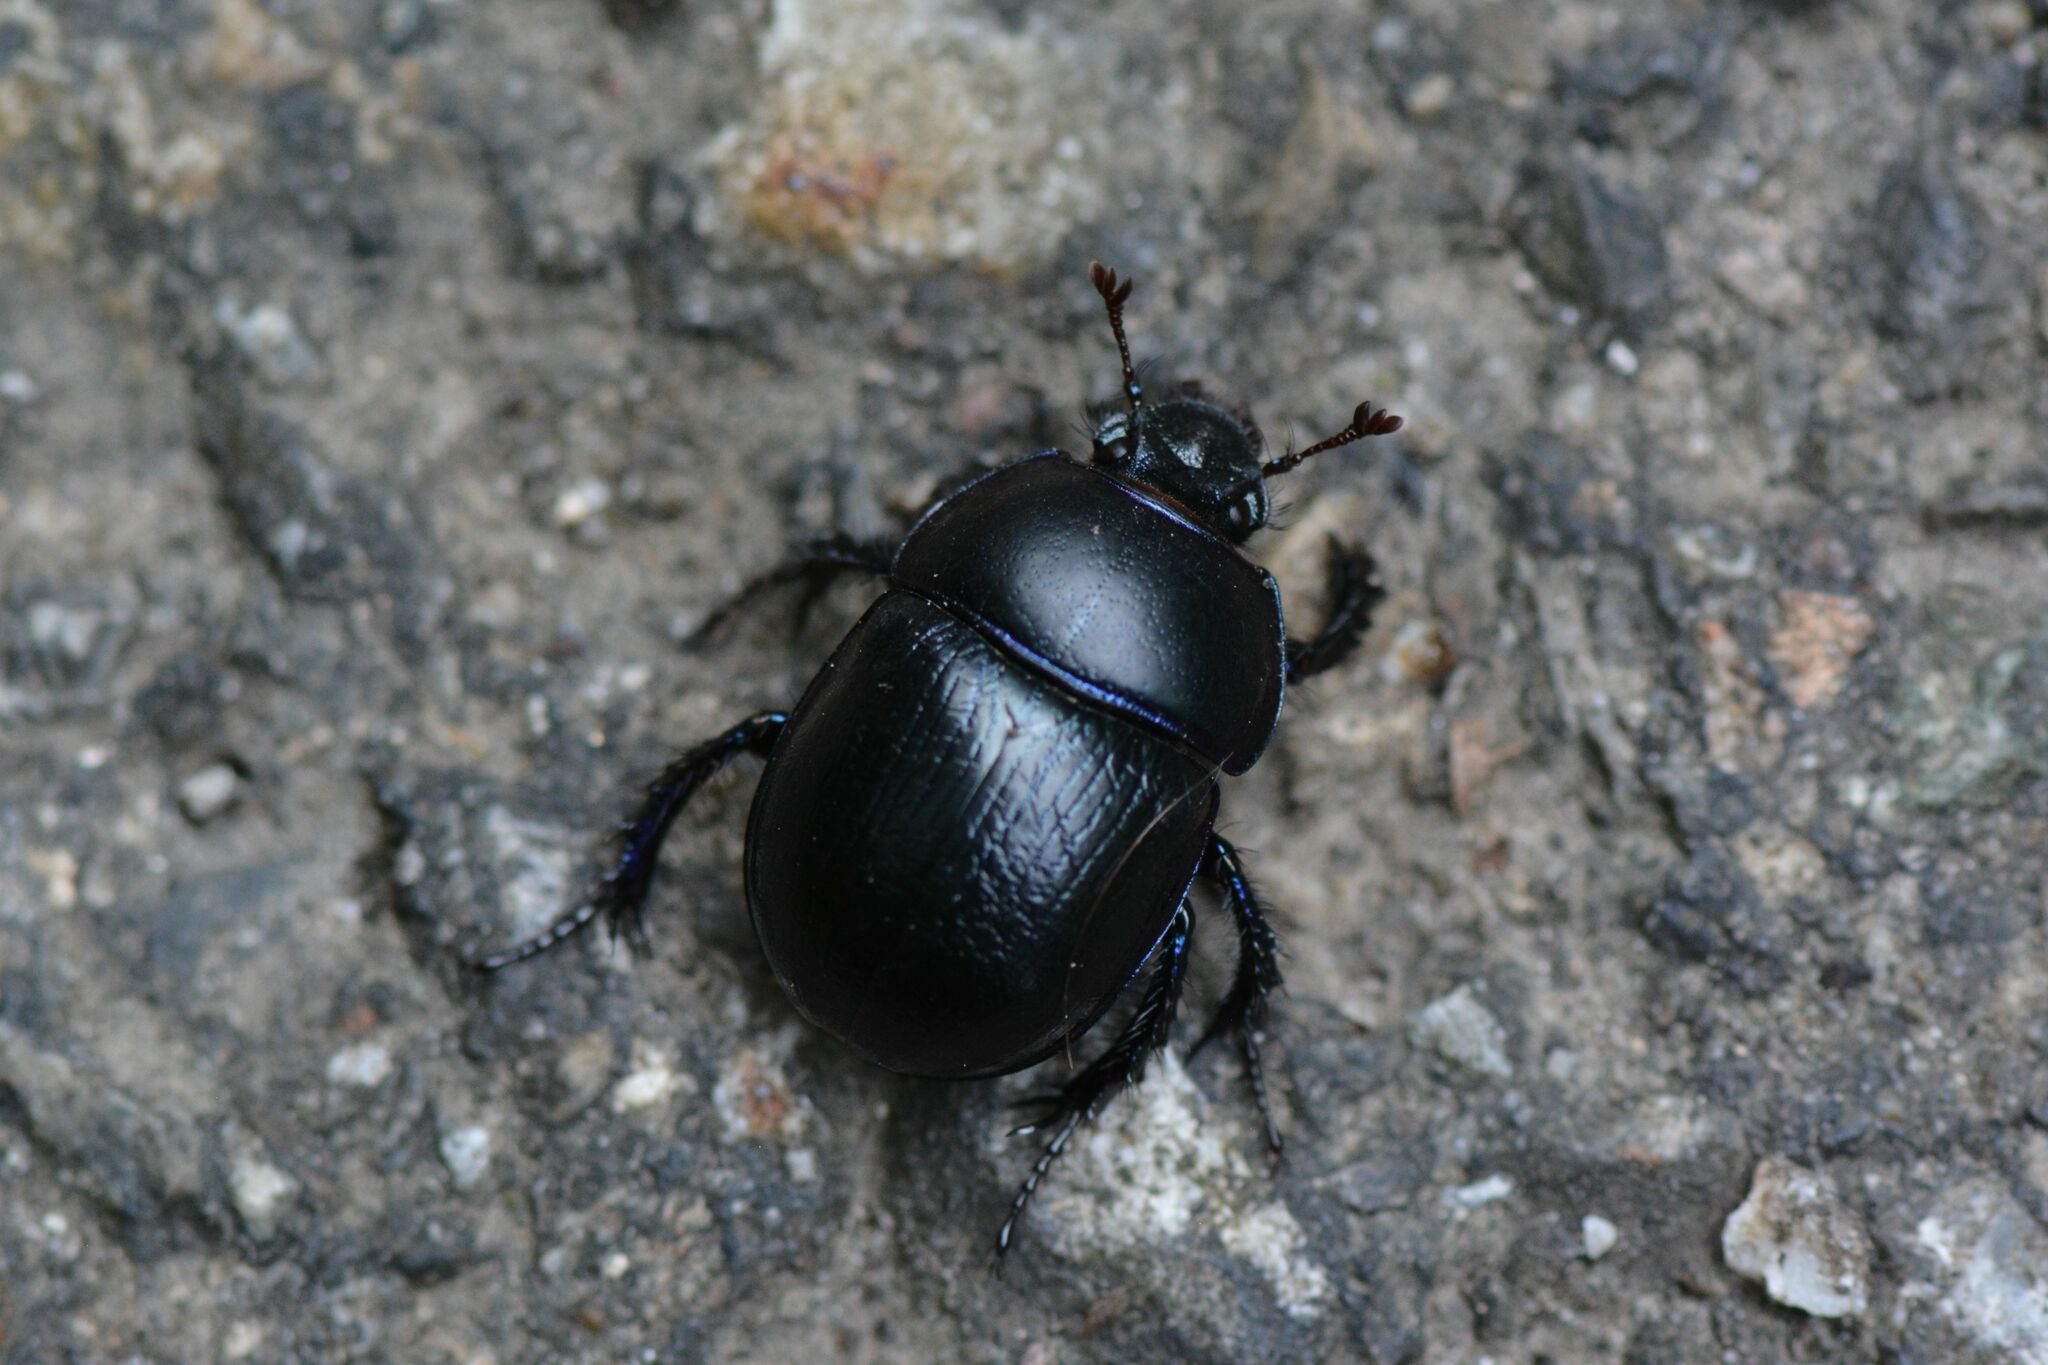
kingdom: Animalia
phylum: Arthropoda
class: Insecta
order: Coleoptera
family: Geotrupidae
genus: Anoplotrupes
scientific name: Anoplotrupes stercorosus
